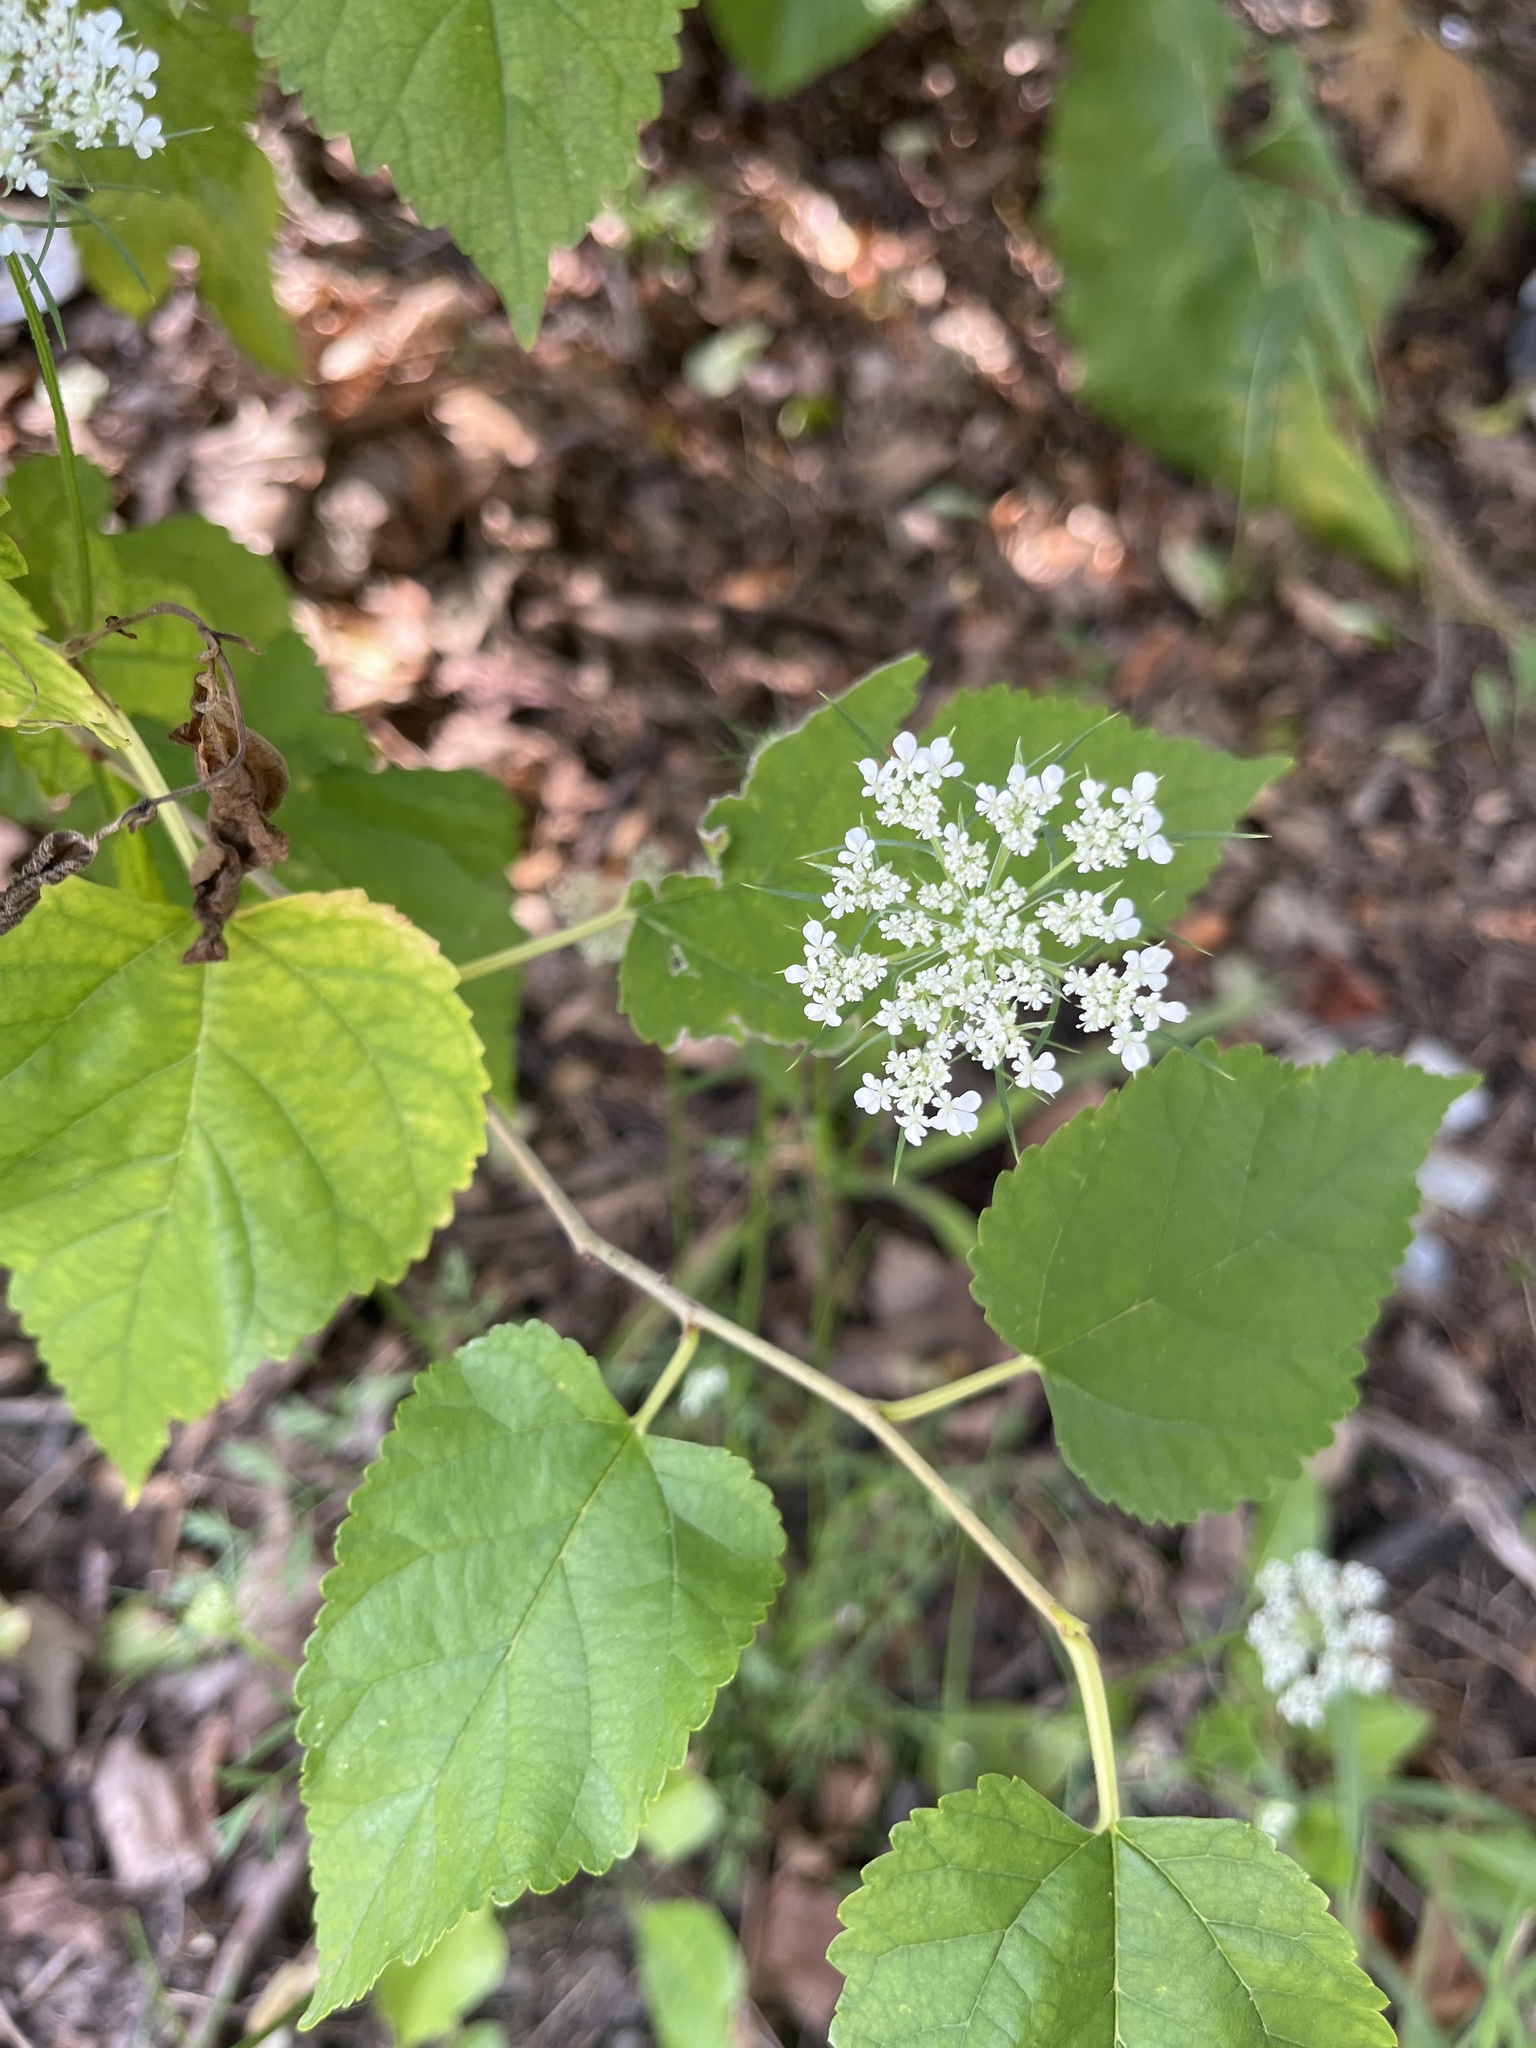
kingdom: Plantae
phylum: Tracheophyta
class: Magnoliopsida
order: Apiales
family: Apiaceae
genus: Daucus
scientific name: Daucus carota
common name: Wild carrot
